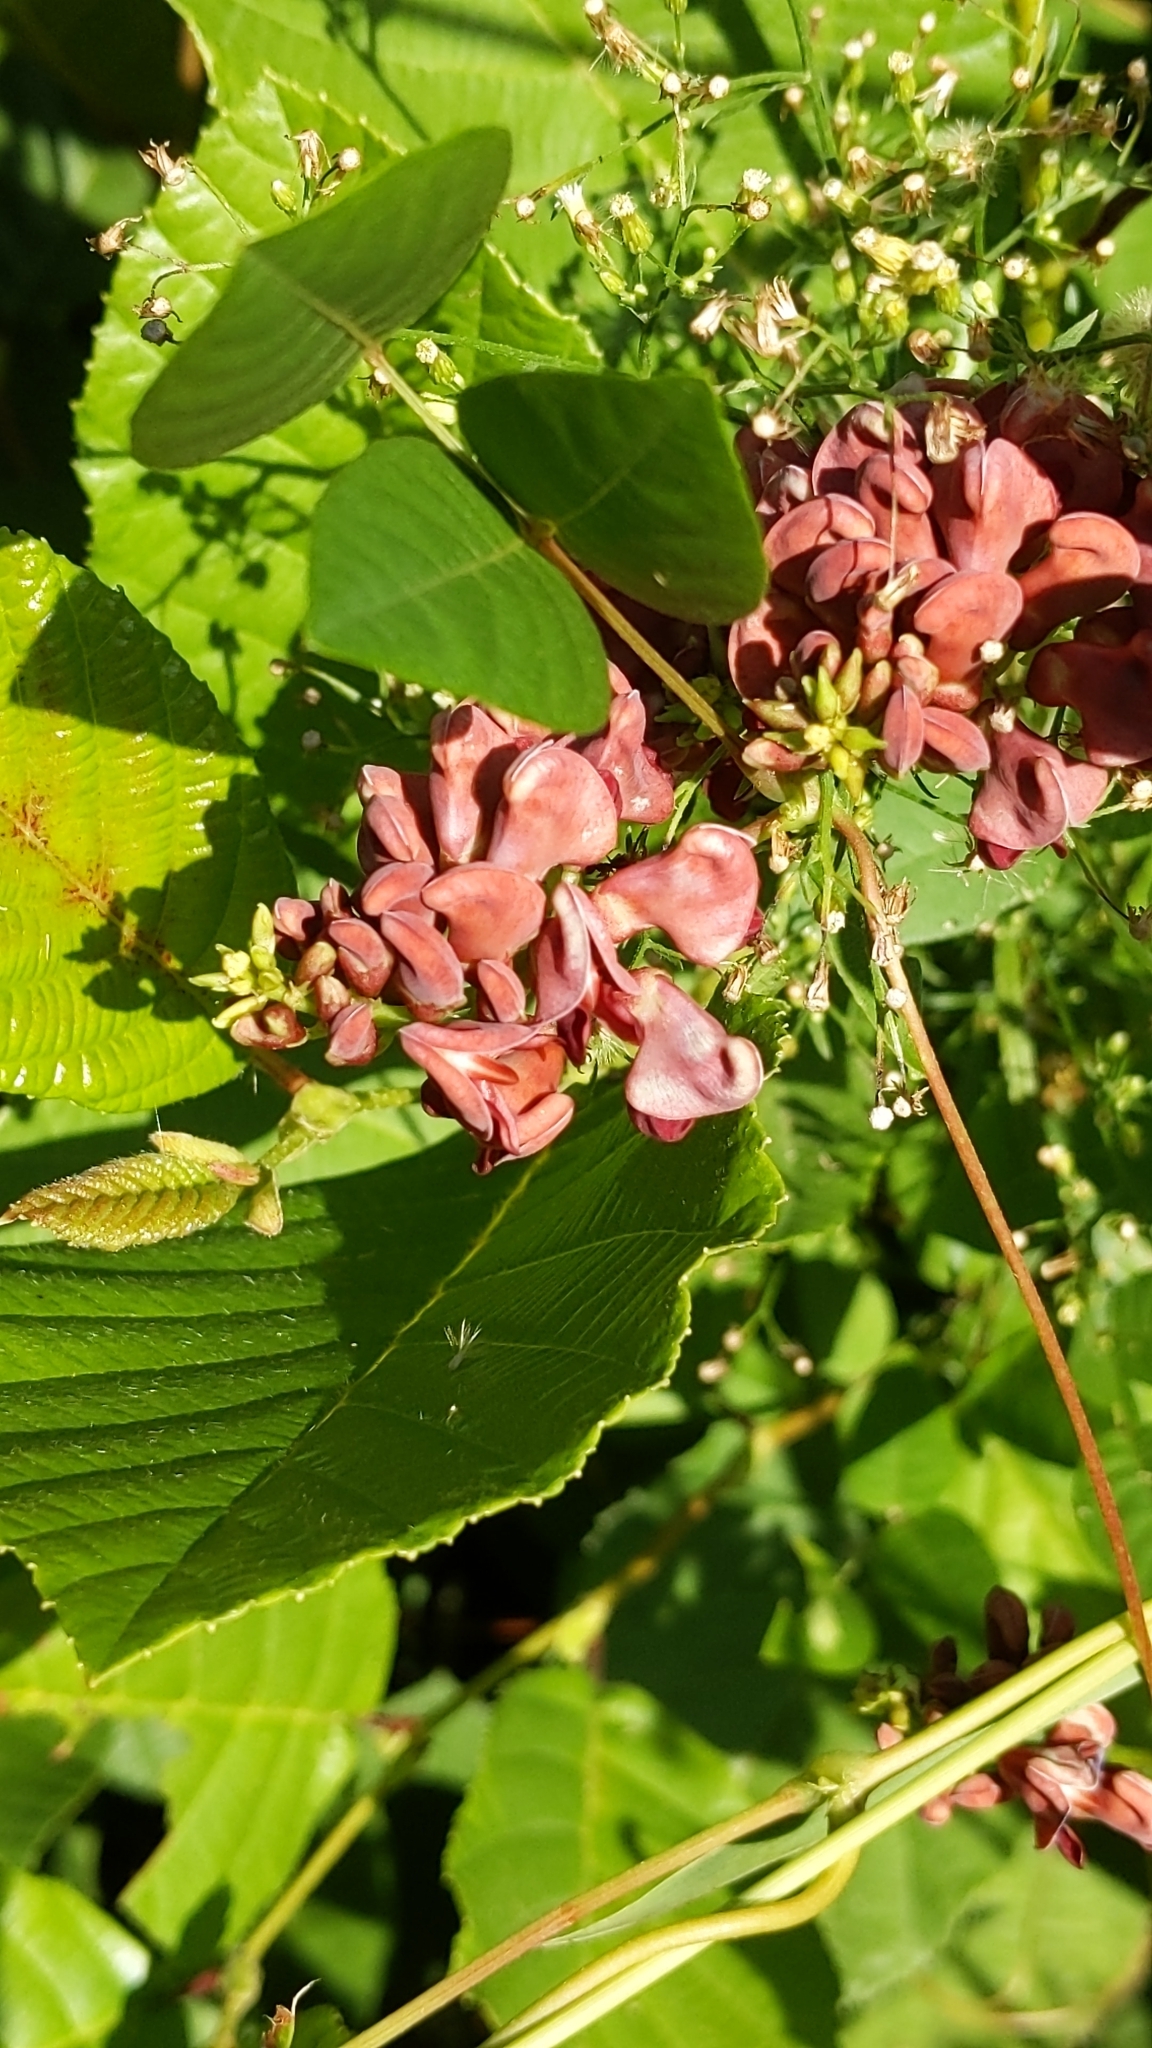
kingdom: Plantae
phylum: Tracheophyta
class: Magnoliopsida
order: Fabales
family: Fabaceae
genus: Apios
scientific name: Apios americana
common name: American potato-bean
